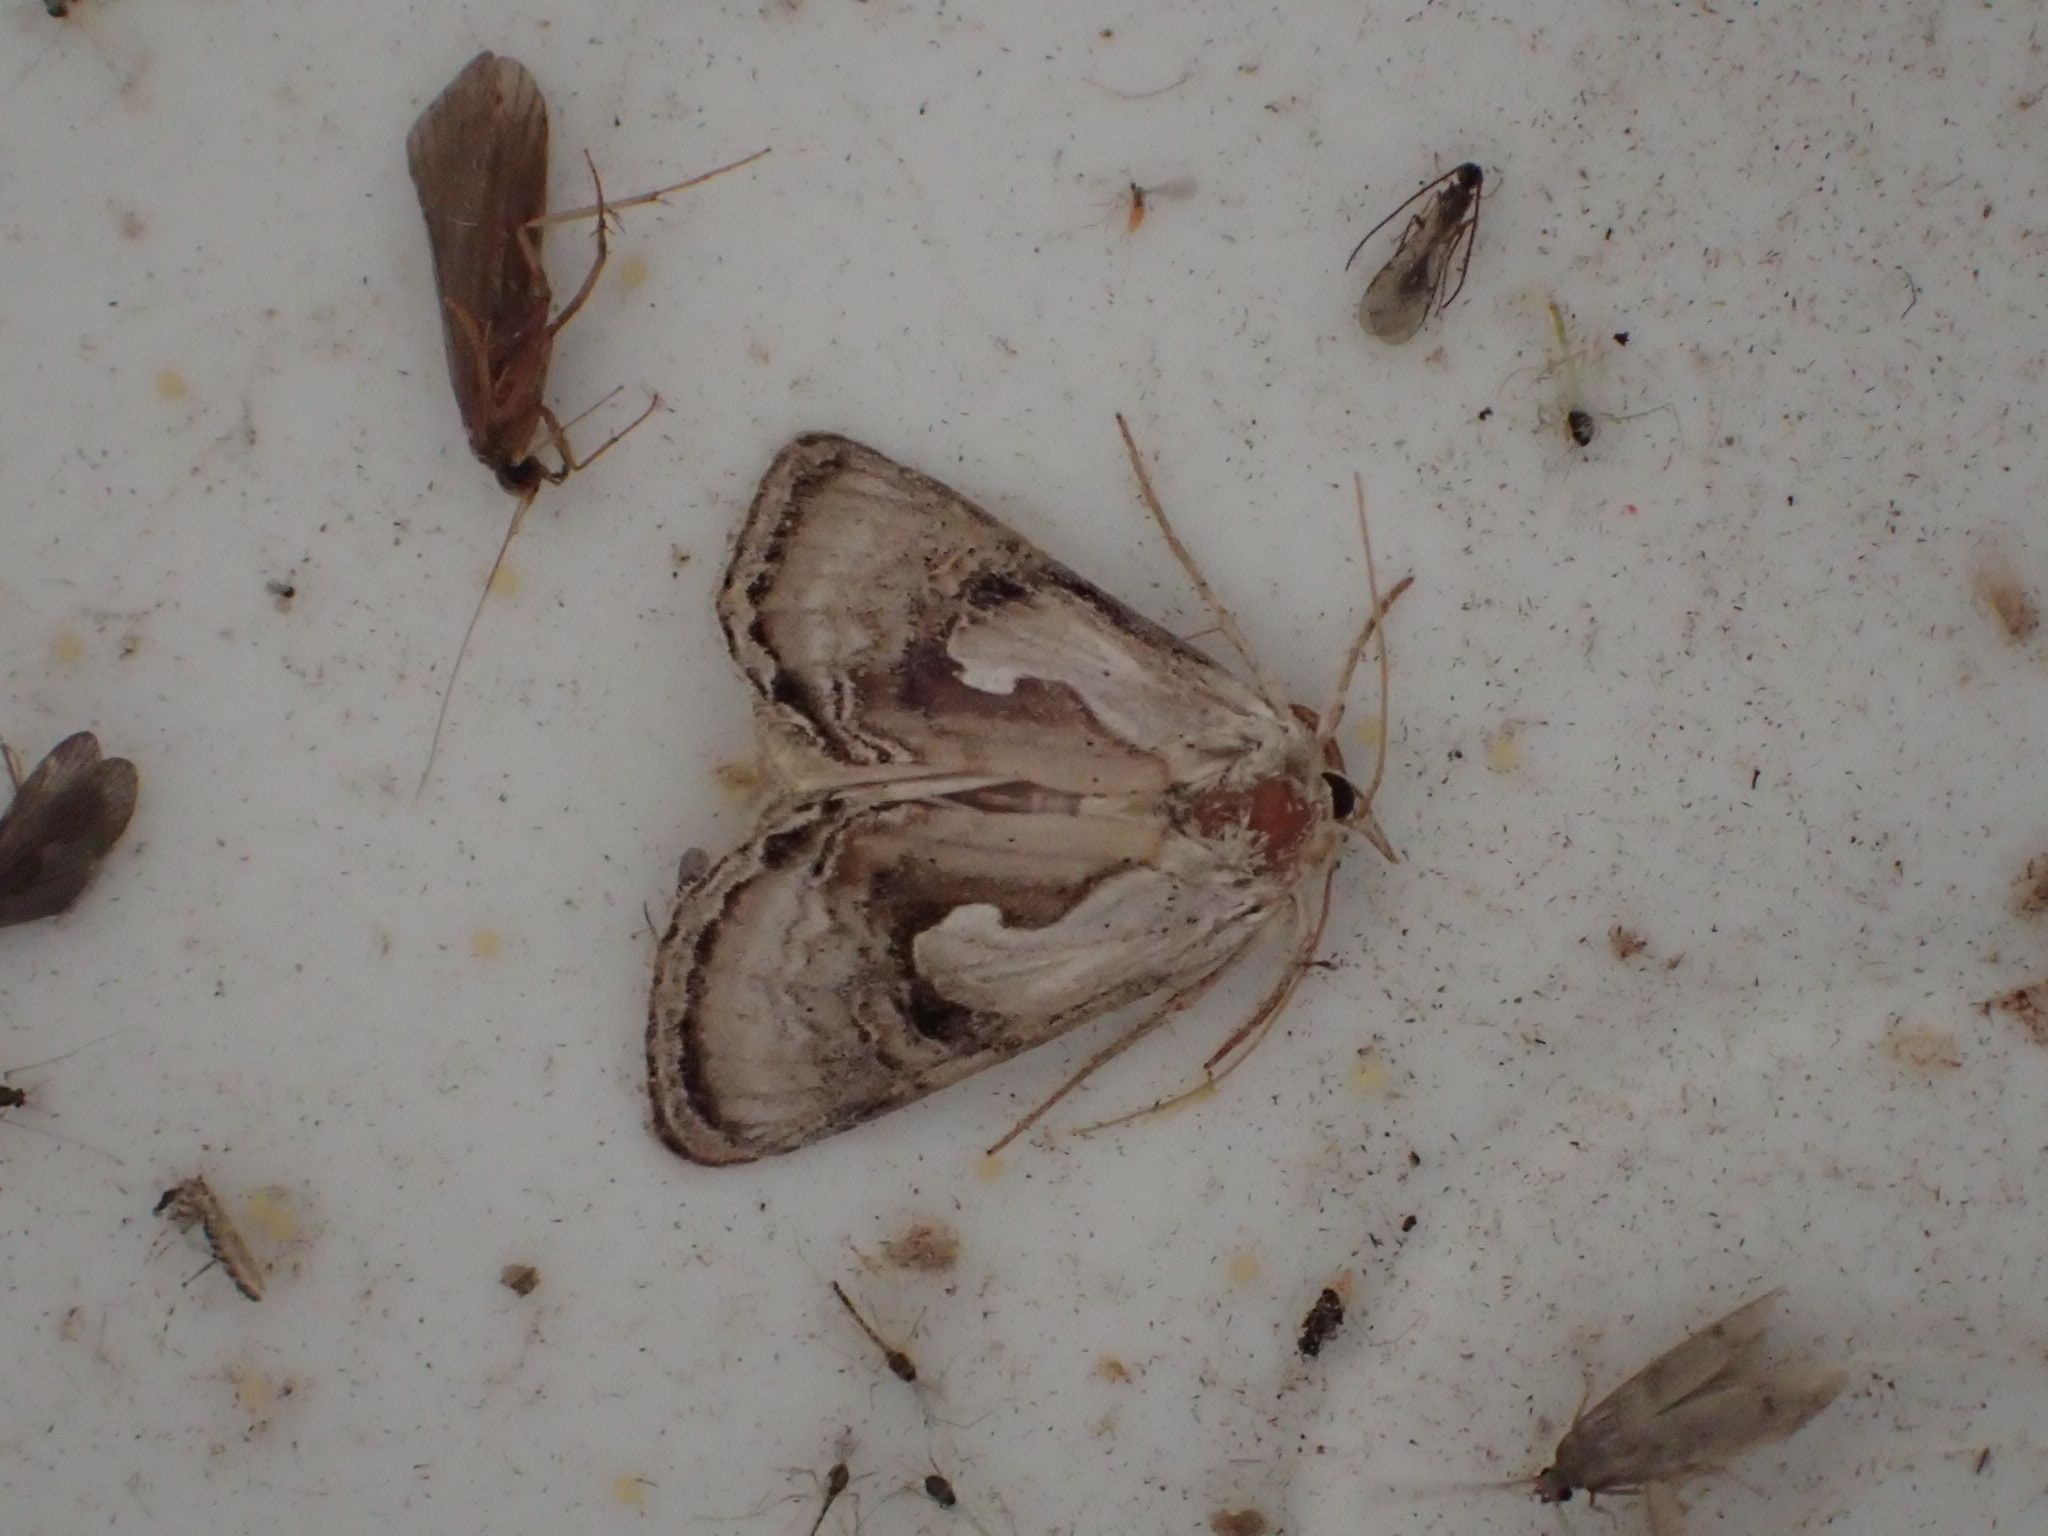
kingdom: Animalia
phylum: Arthropoda
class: Insecta
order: Lepidoptera
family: Noctuidae
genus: Chrysanympha
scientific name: Chrysanympha formosa
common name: Formosa looper moth
